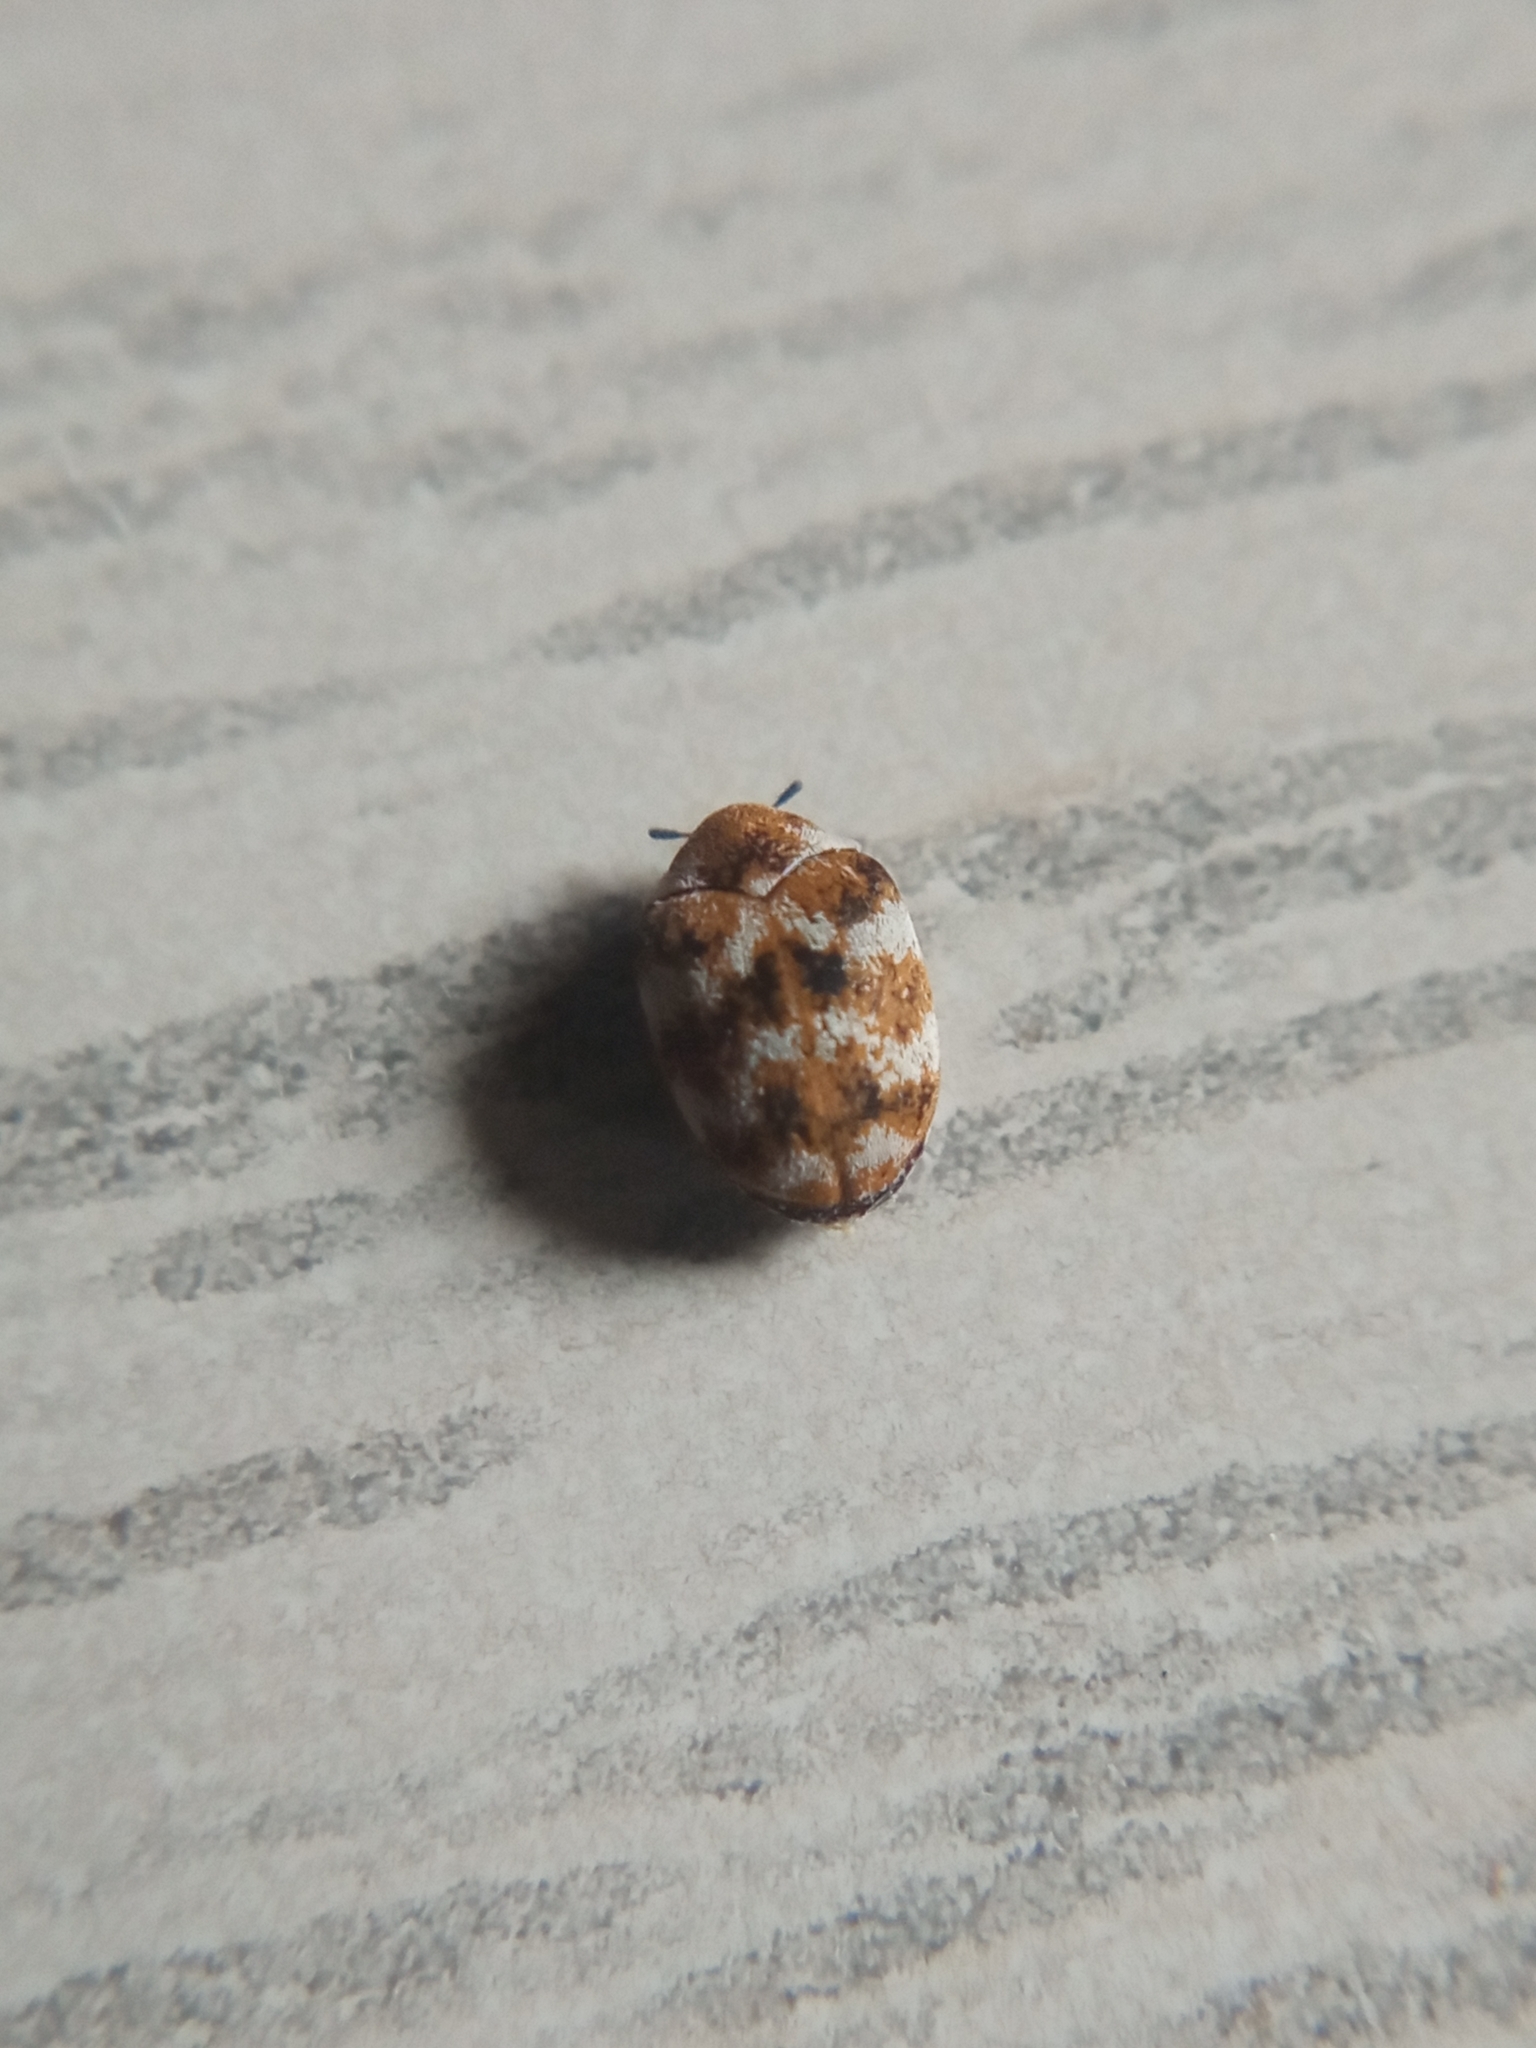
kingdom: Animalia
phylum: Arthropoda
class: Insecta
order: Coleoptera
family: Dermestidae
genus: Anthrenus
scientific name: Anthrenus verbasci
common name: Varied carpet beetle
